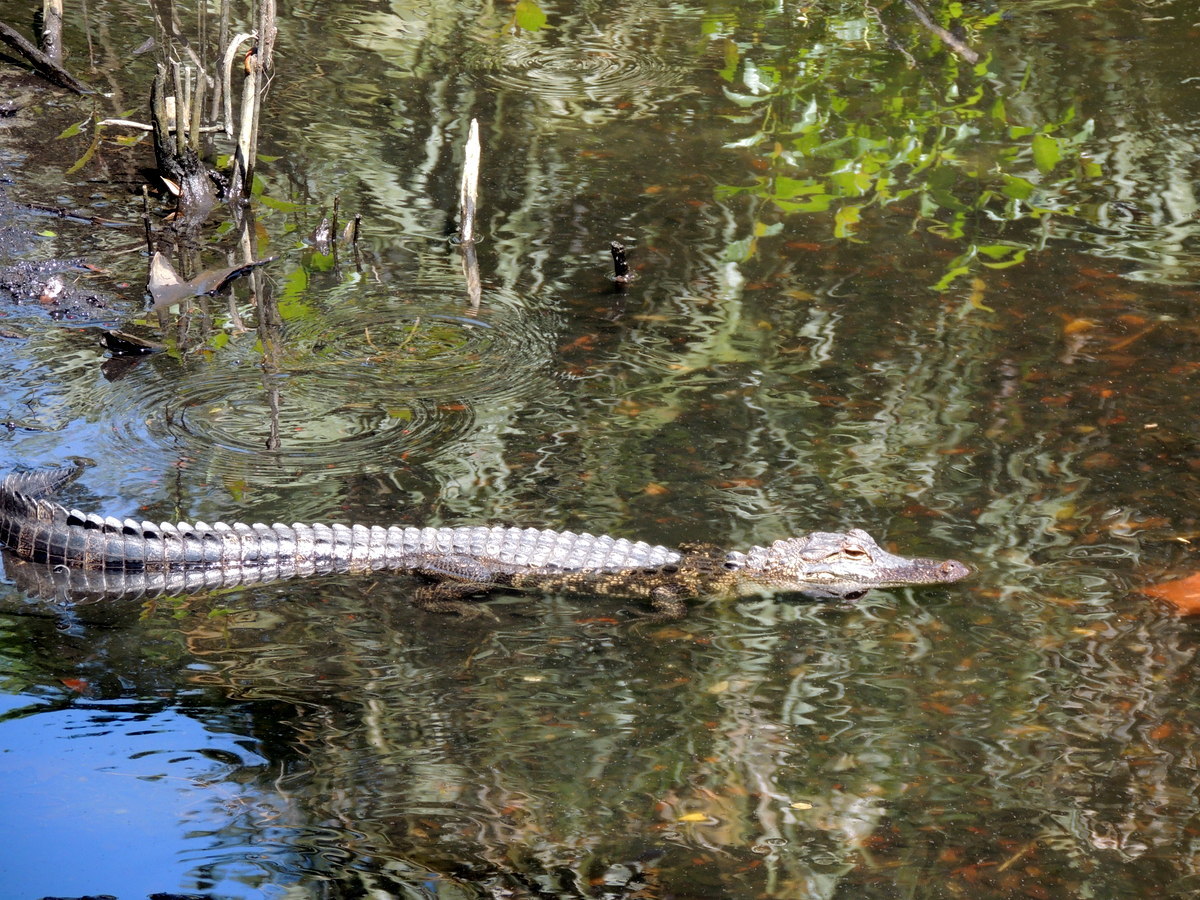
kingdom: Animalia
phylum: Chordata
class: Crocodylia
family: Alligatoridae
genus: Alligator
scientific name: Alligator mississippiensis
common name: American alligator
